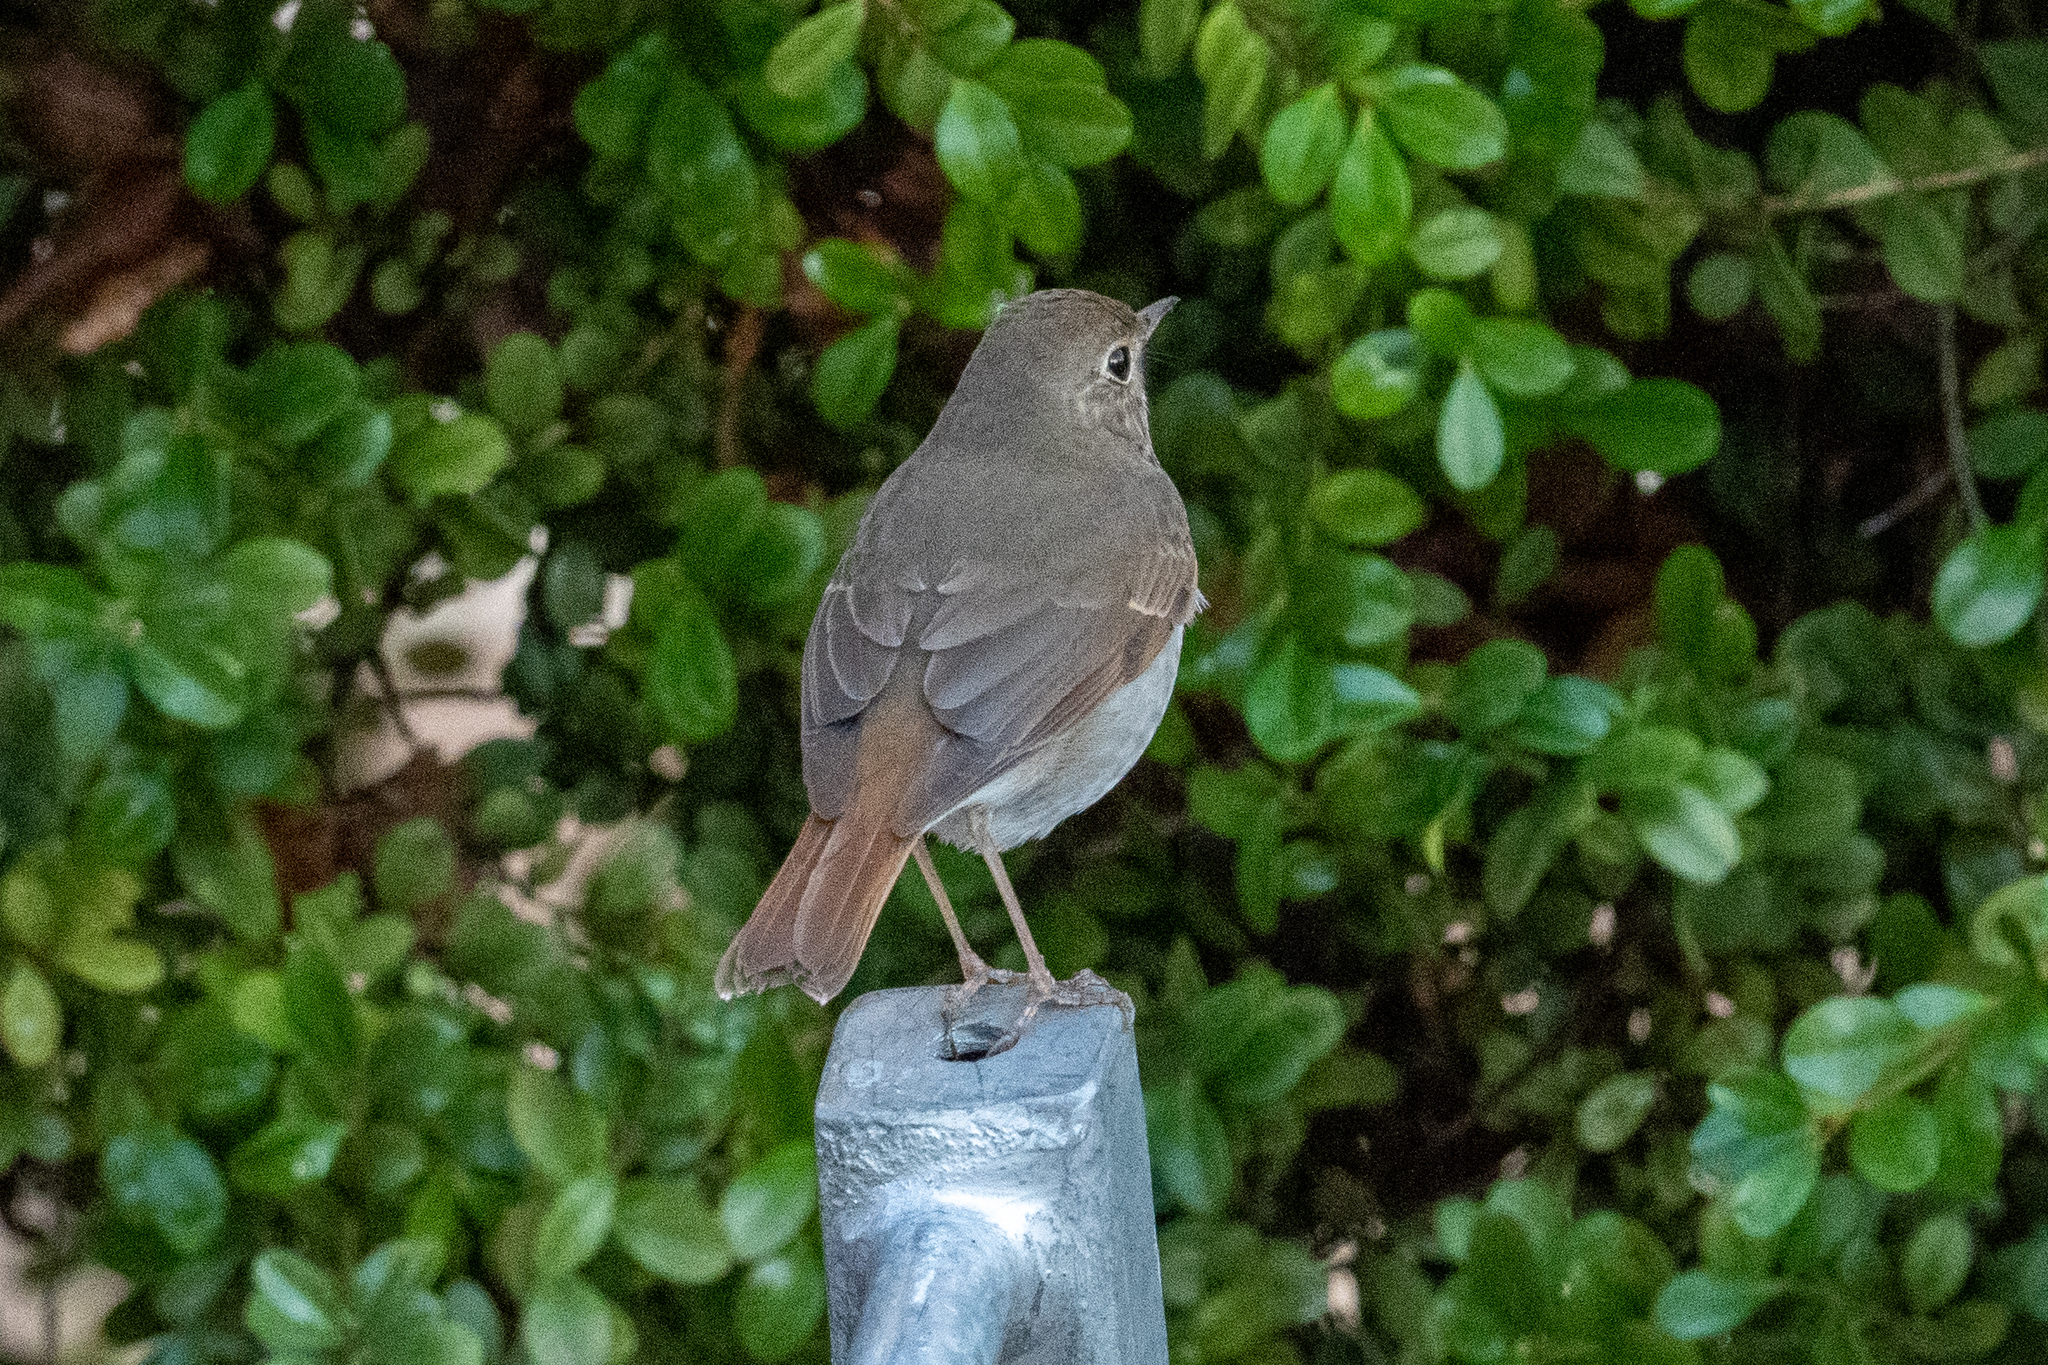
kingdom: Animalia
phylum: Chordata
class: Aves
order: Passeriformes
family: Turdidae
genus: Catharus
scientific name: Catharus guttatus
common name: Hermit thrush
